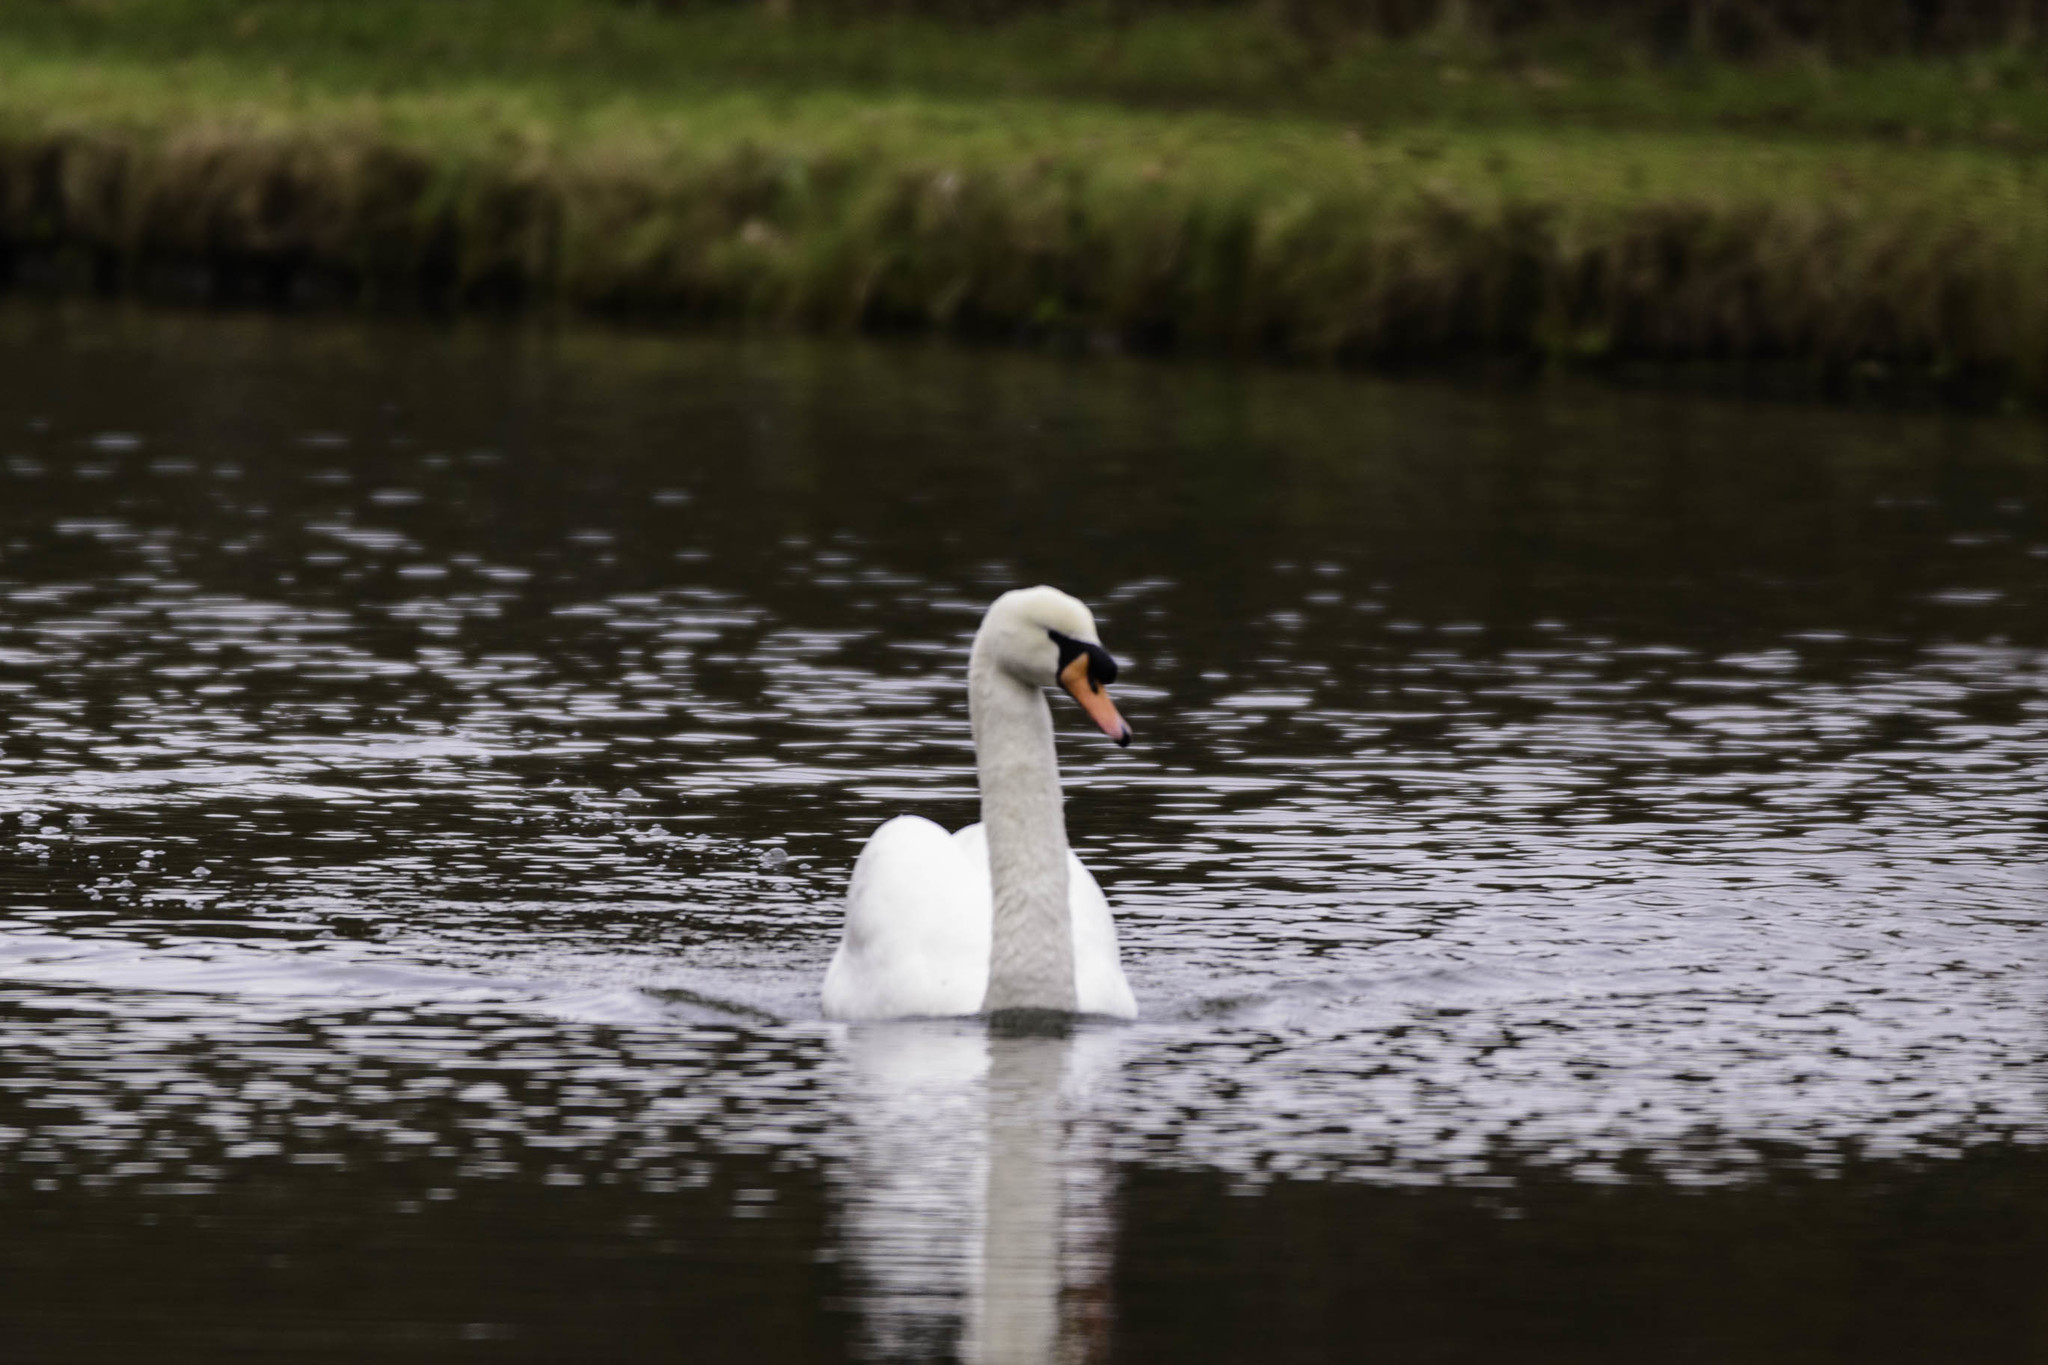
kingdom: Animalia
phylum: Chordata
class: Aves
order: Anseriformes
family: Anatidae
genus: Cygnus
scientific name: Cygnus olor
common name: Mute swan
